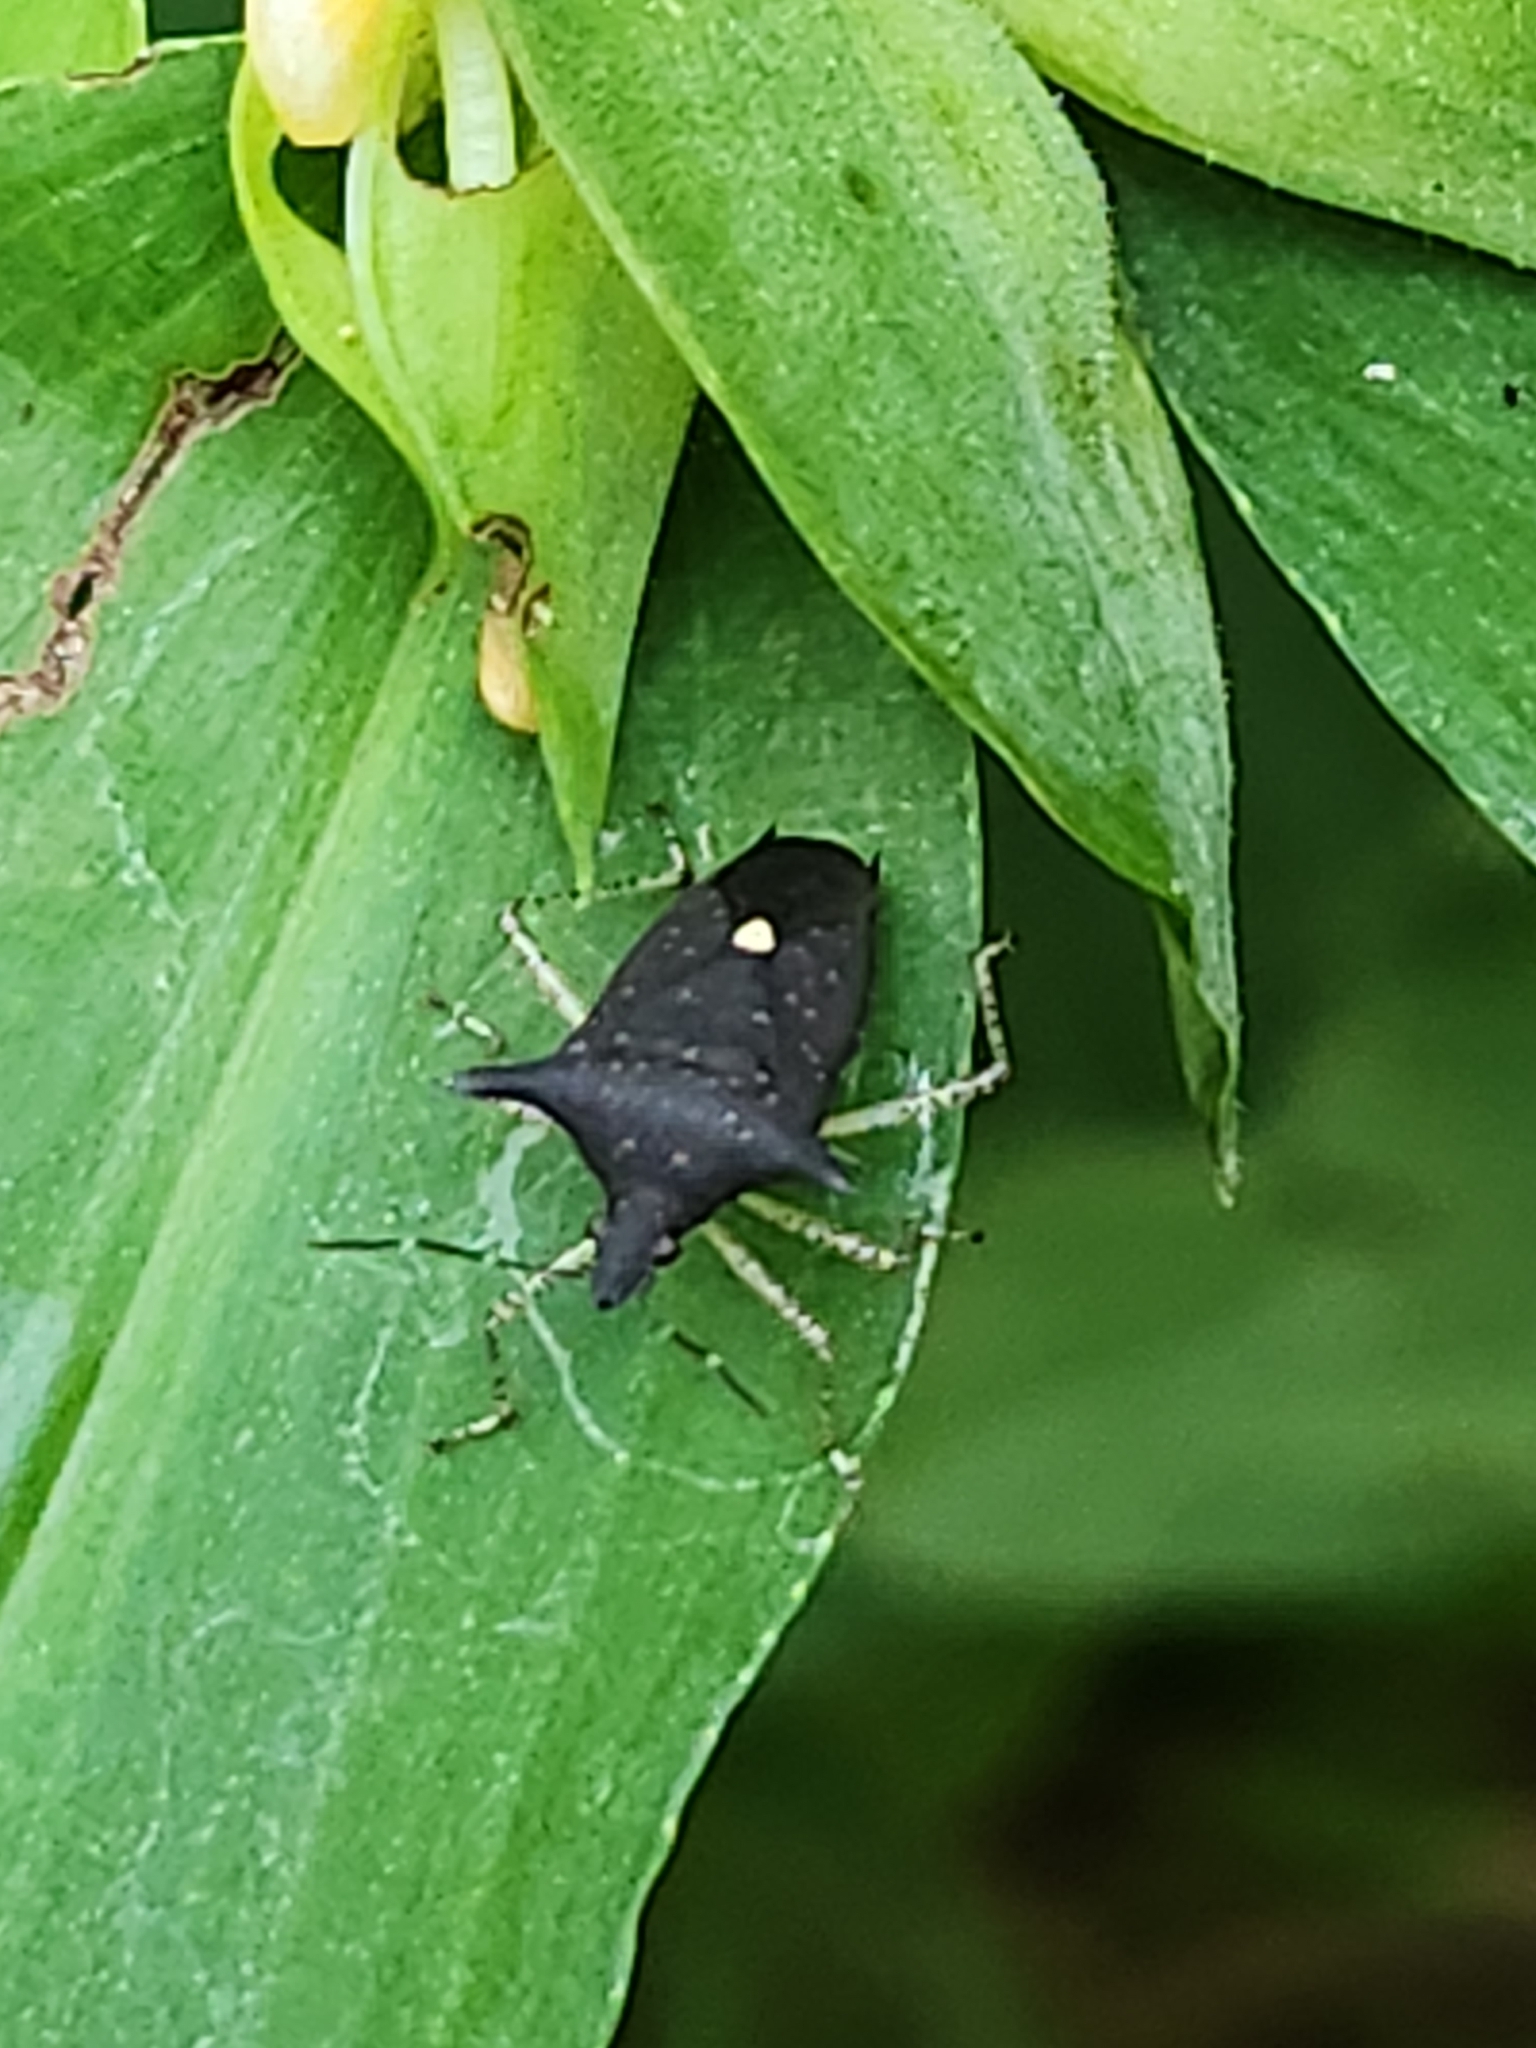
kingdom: Animalia
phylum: Arthropoda
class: Insecta
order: Hemiptera
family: Pentatomidae
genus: Proxys
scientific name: Proxys albopunctulatus
